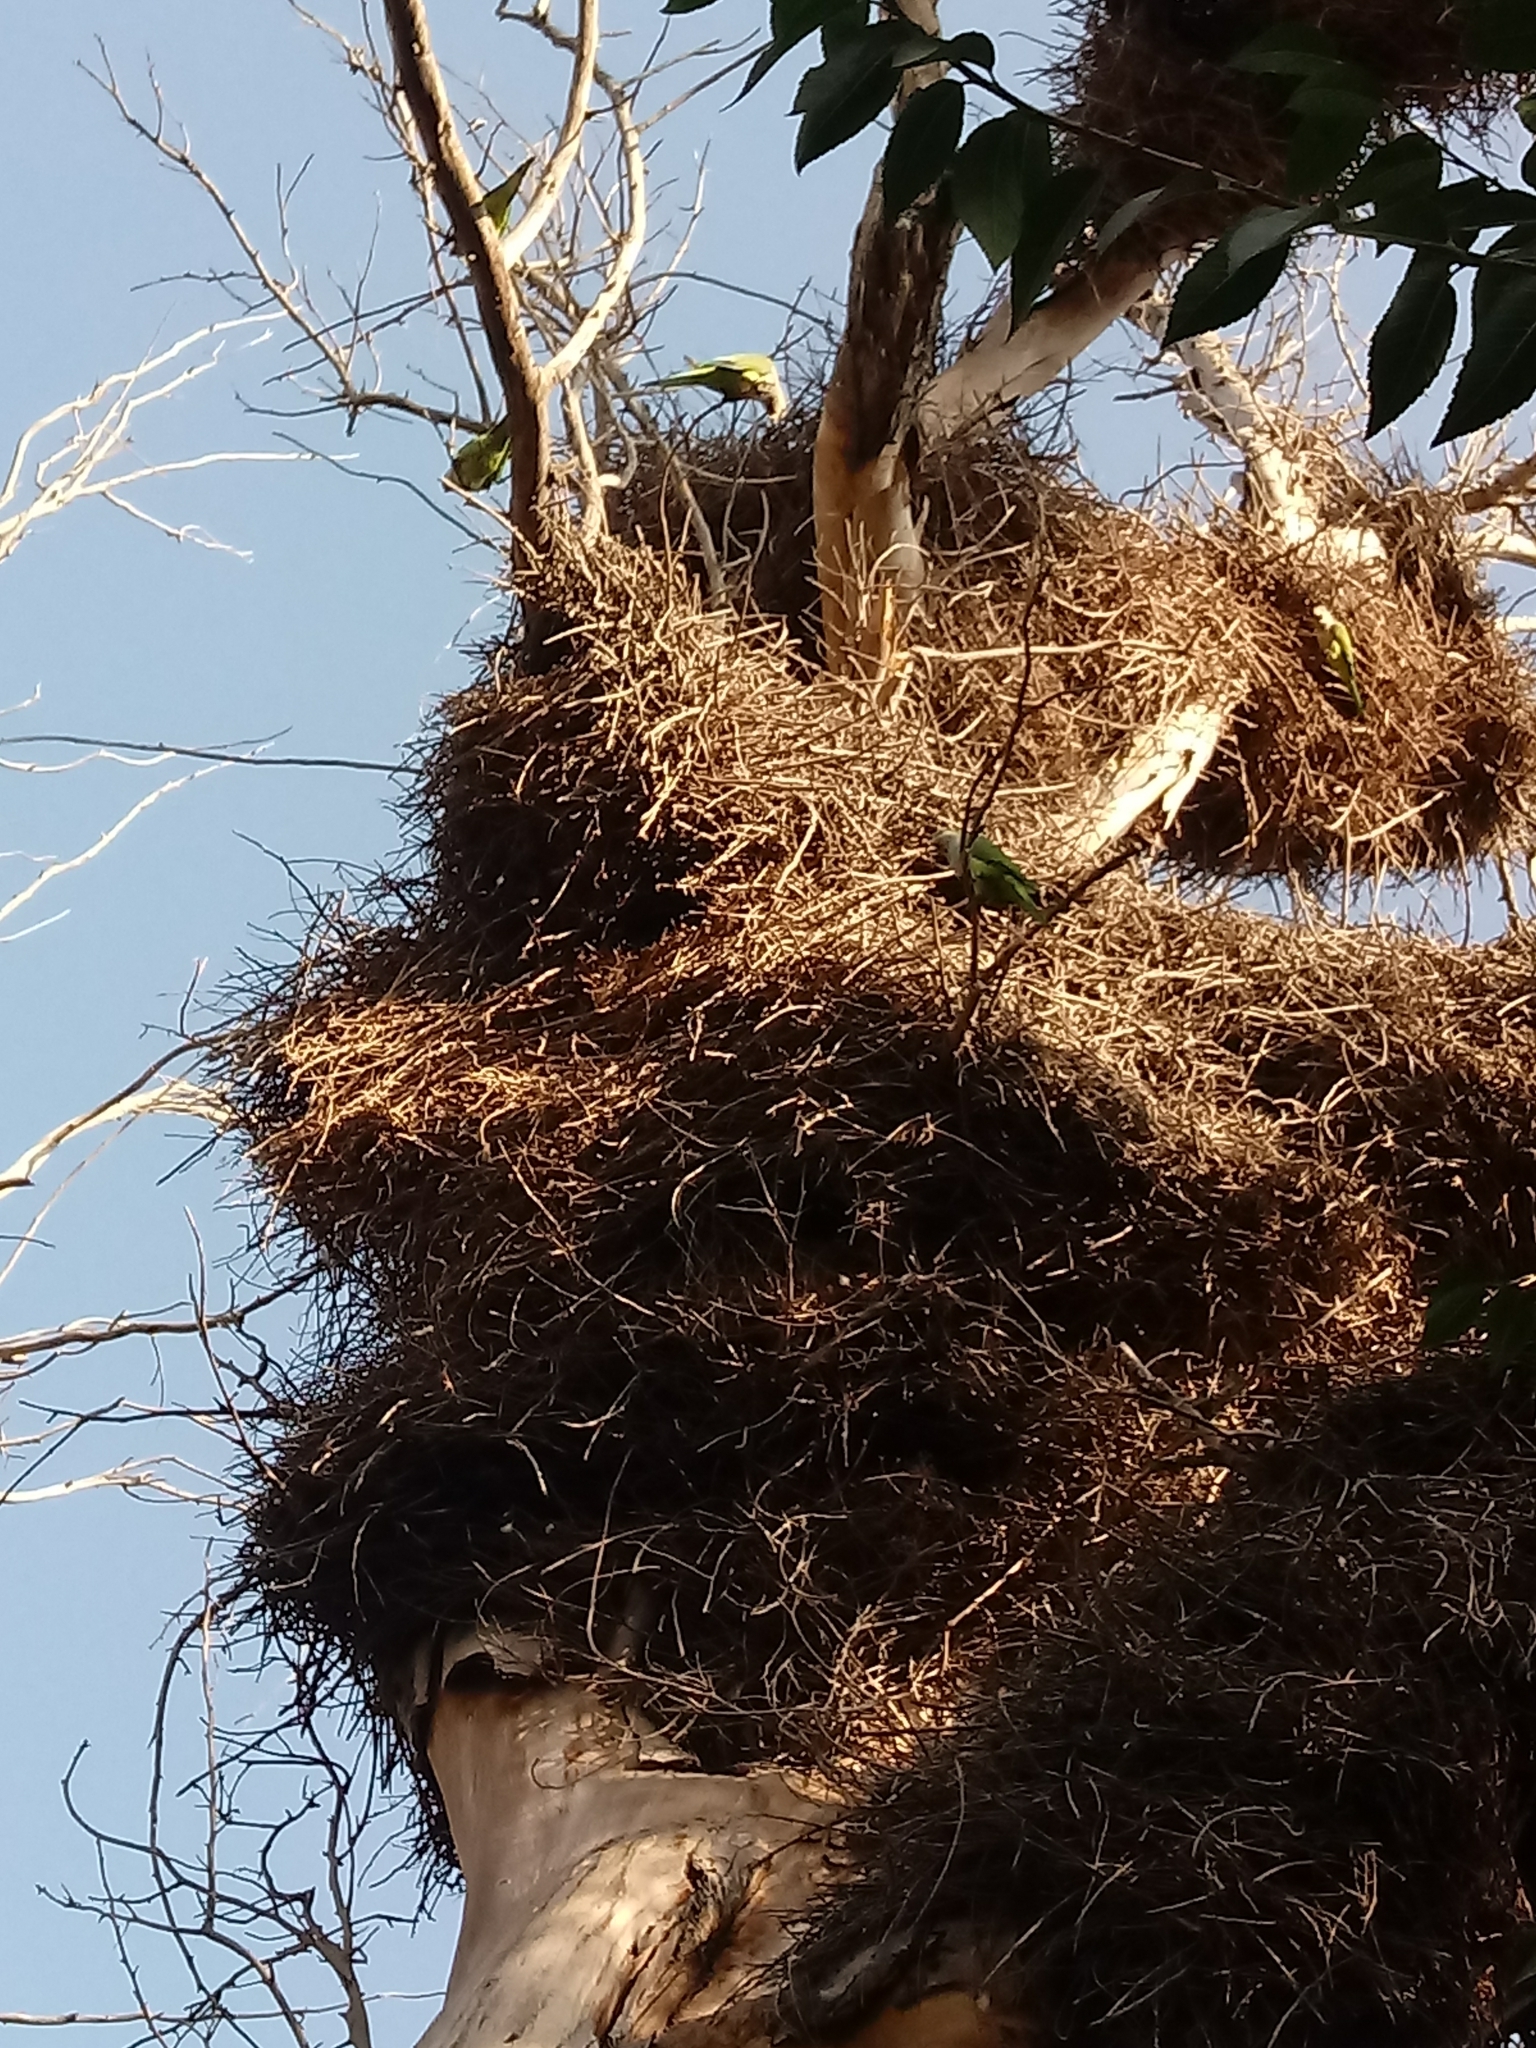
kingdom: Animalia
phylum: Chordata
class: Aves
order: Psittaciformes
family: Psittacidae
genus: Myiopsitta
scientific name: Myiopsitta monachus
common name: Monk parakeet
